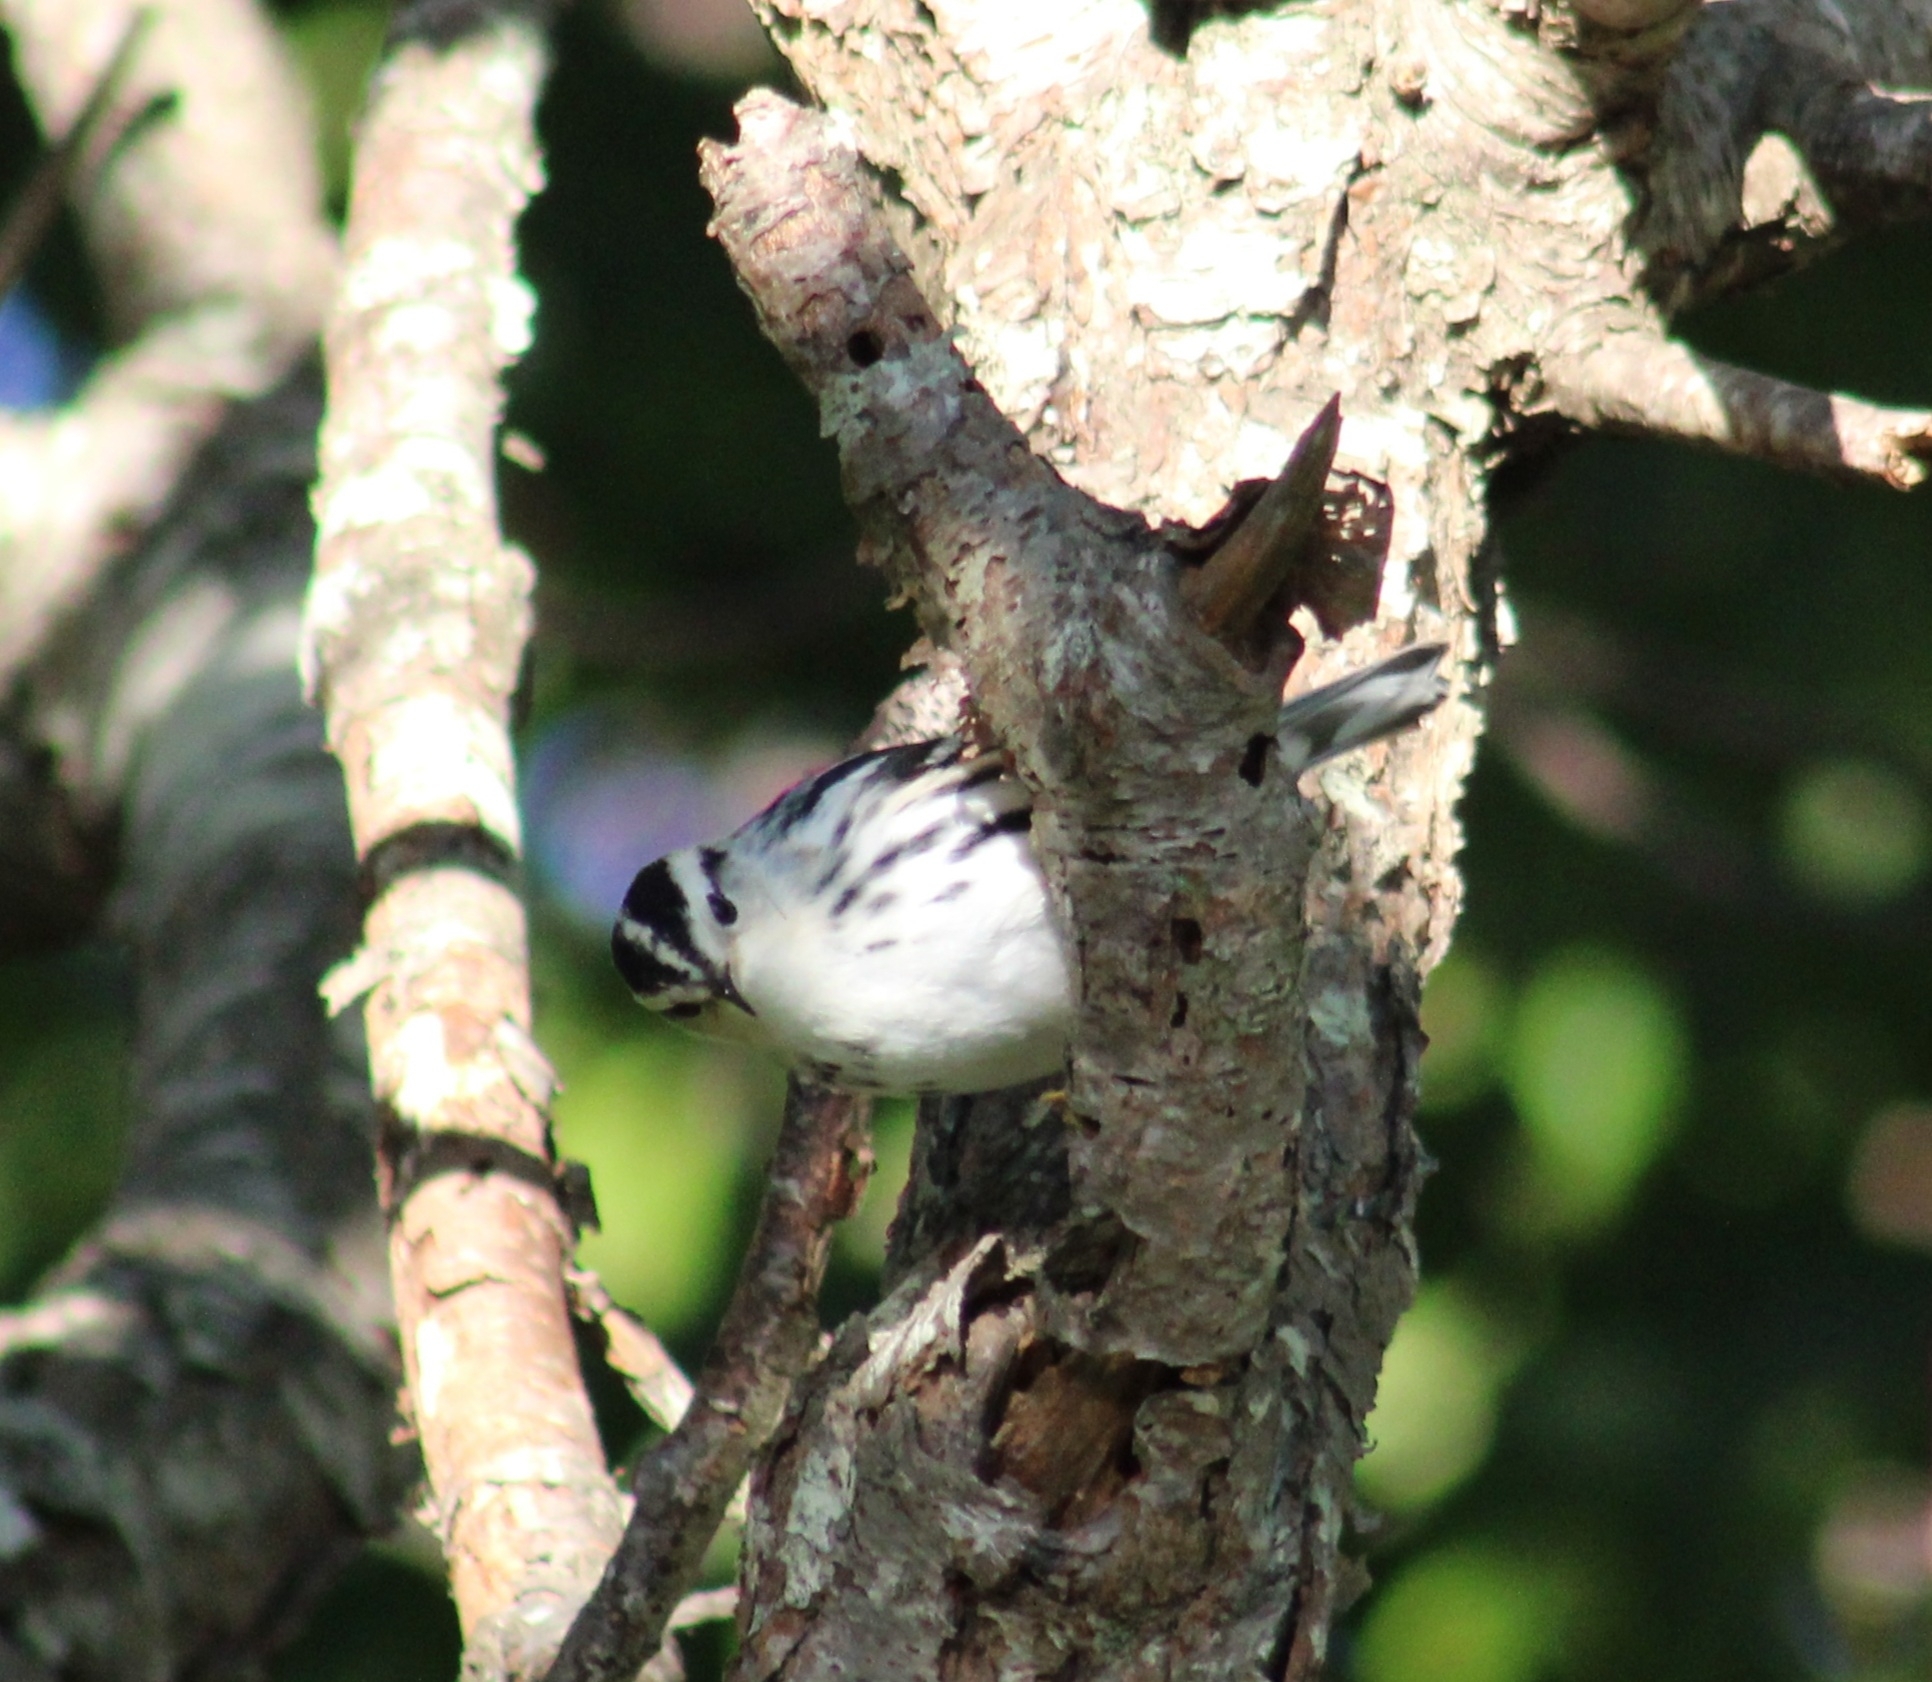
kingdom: Animalia
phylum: Chordata
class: Aves
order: Passeriformes
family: Parulidae
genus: Mniotilta
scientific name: Mniotilta varia
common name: Black-and-white warbler
